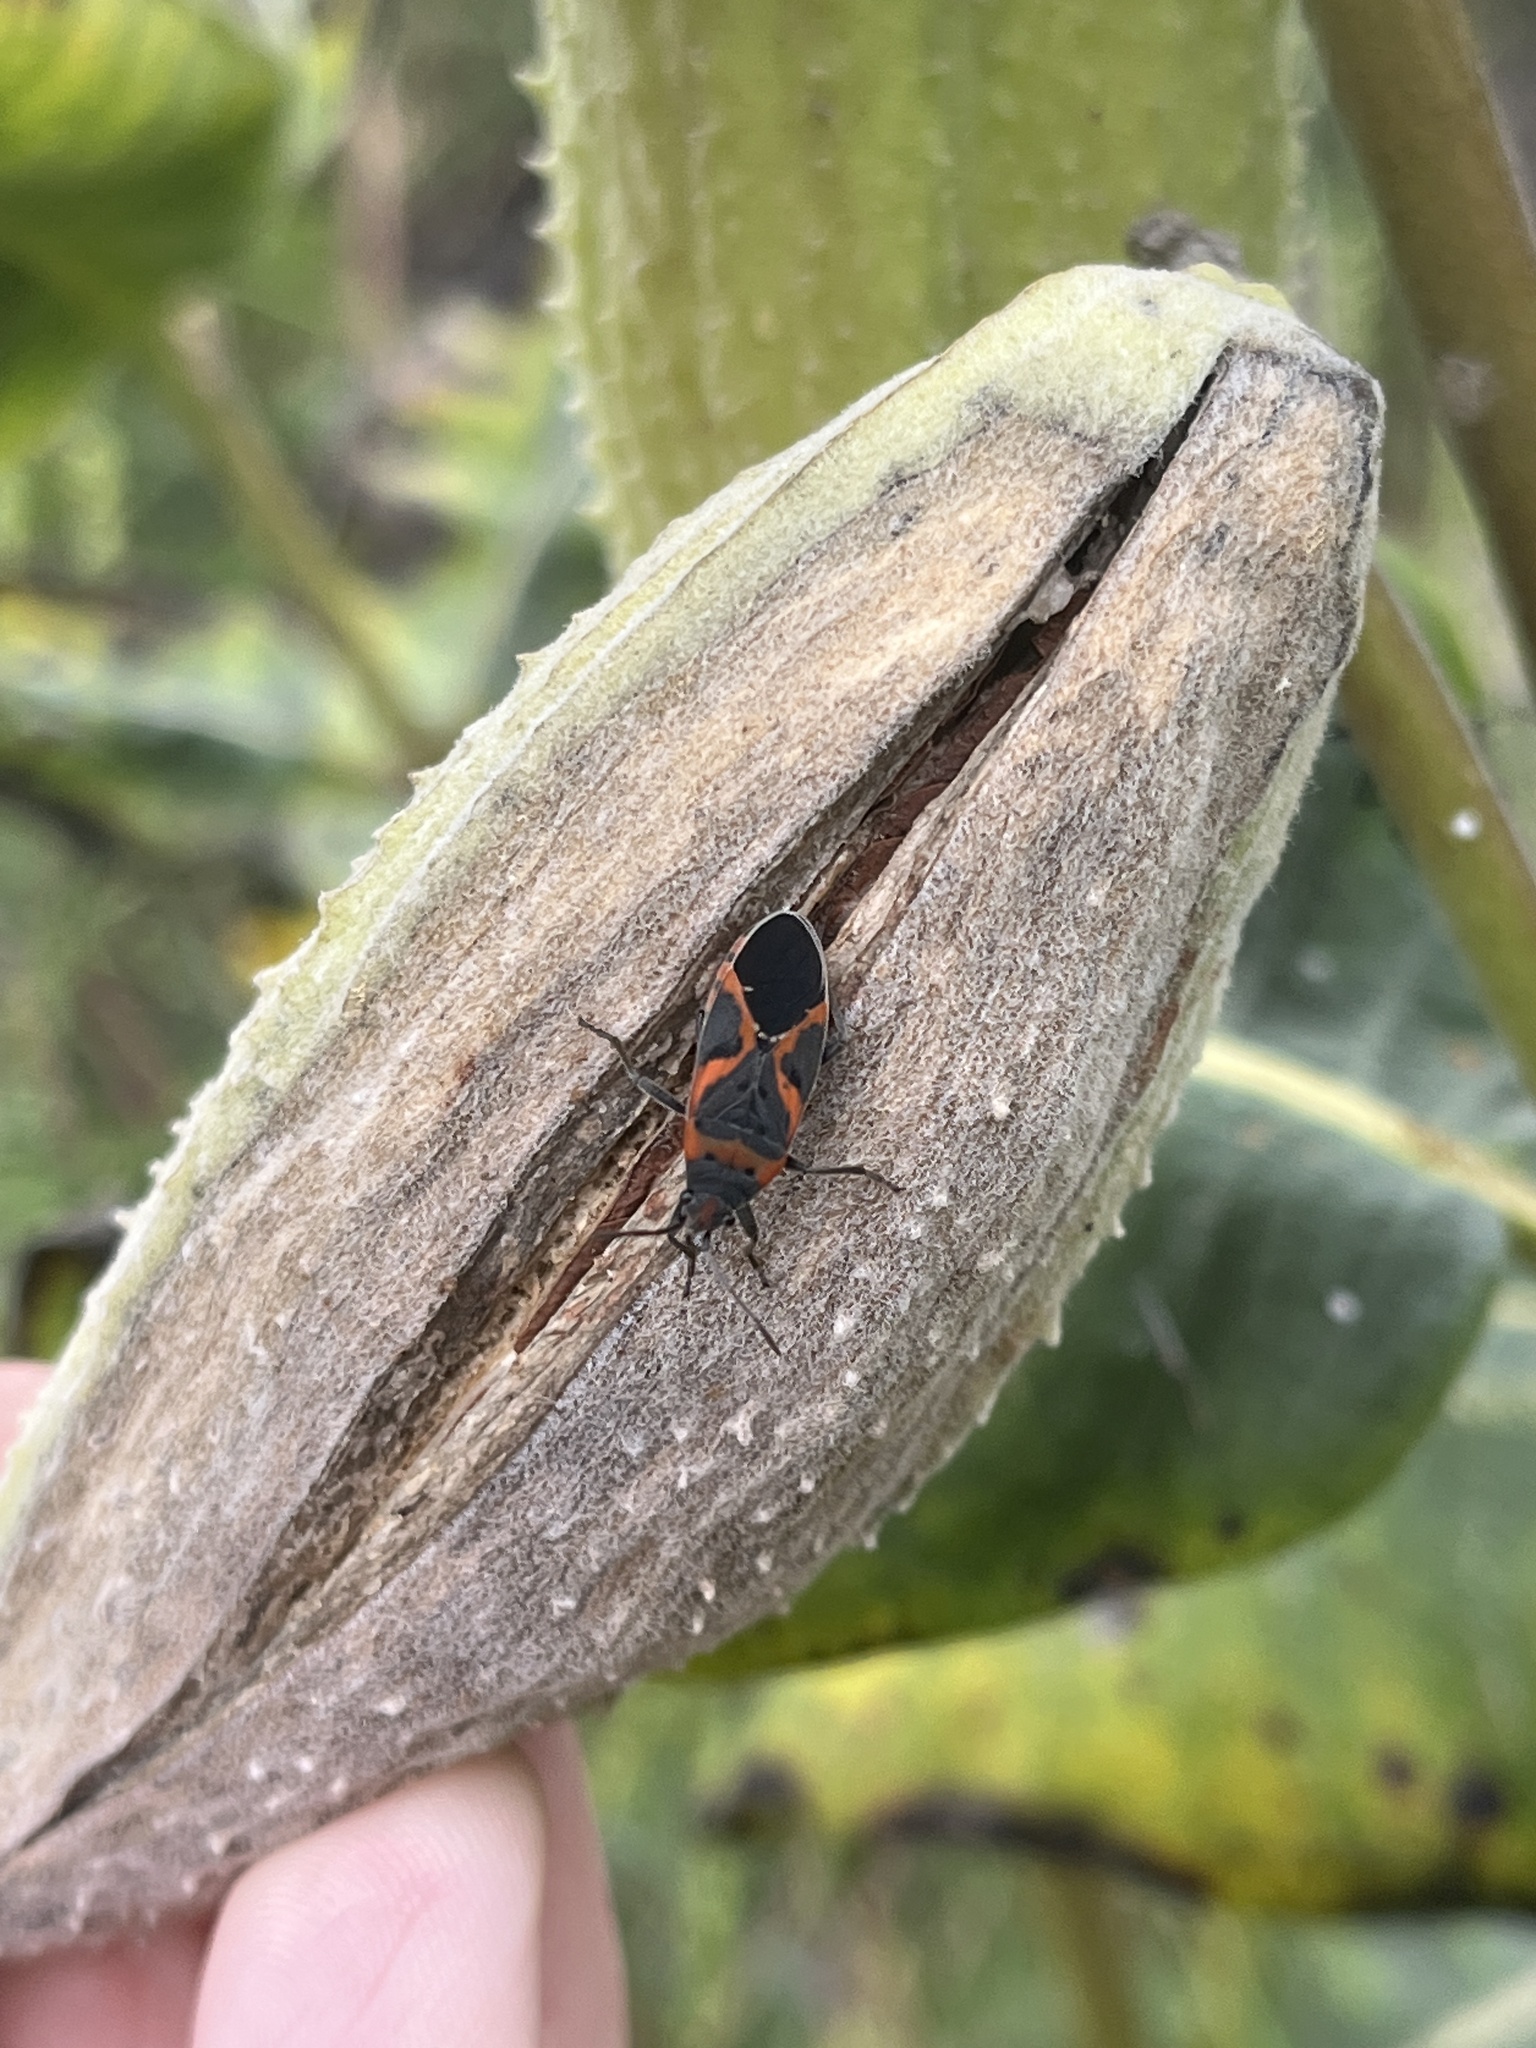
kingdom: Animalia
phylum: Arthropoda
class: Insecta
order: Hemiptera
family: Lygaeidae
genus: Lygaeus
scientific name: Lygaeus kalmii
